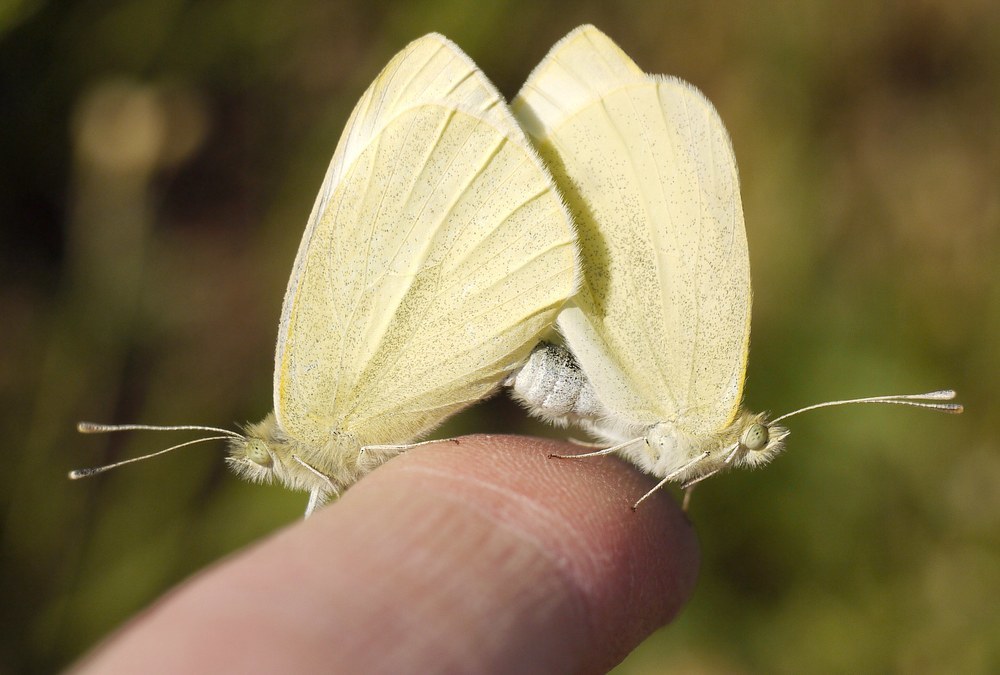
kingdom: Animalia
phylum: Arthropoda
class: Insecta
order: Lepidoptera
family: Pieridae
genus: Pieris
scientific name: Pieris rapae
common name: Small white
